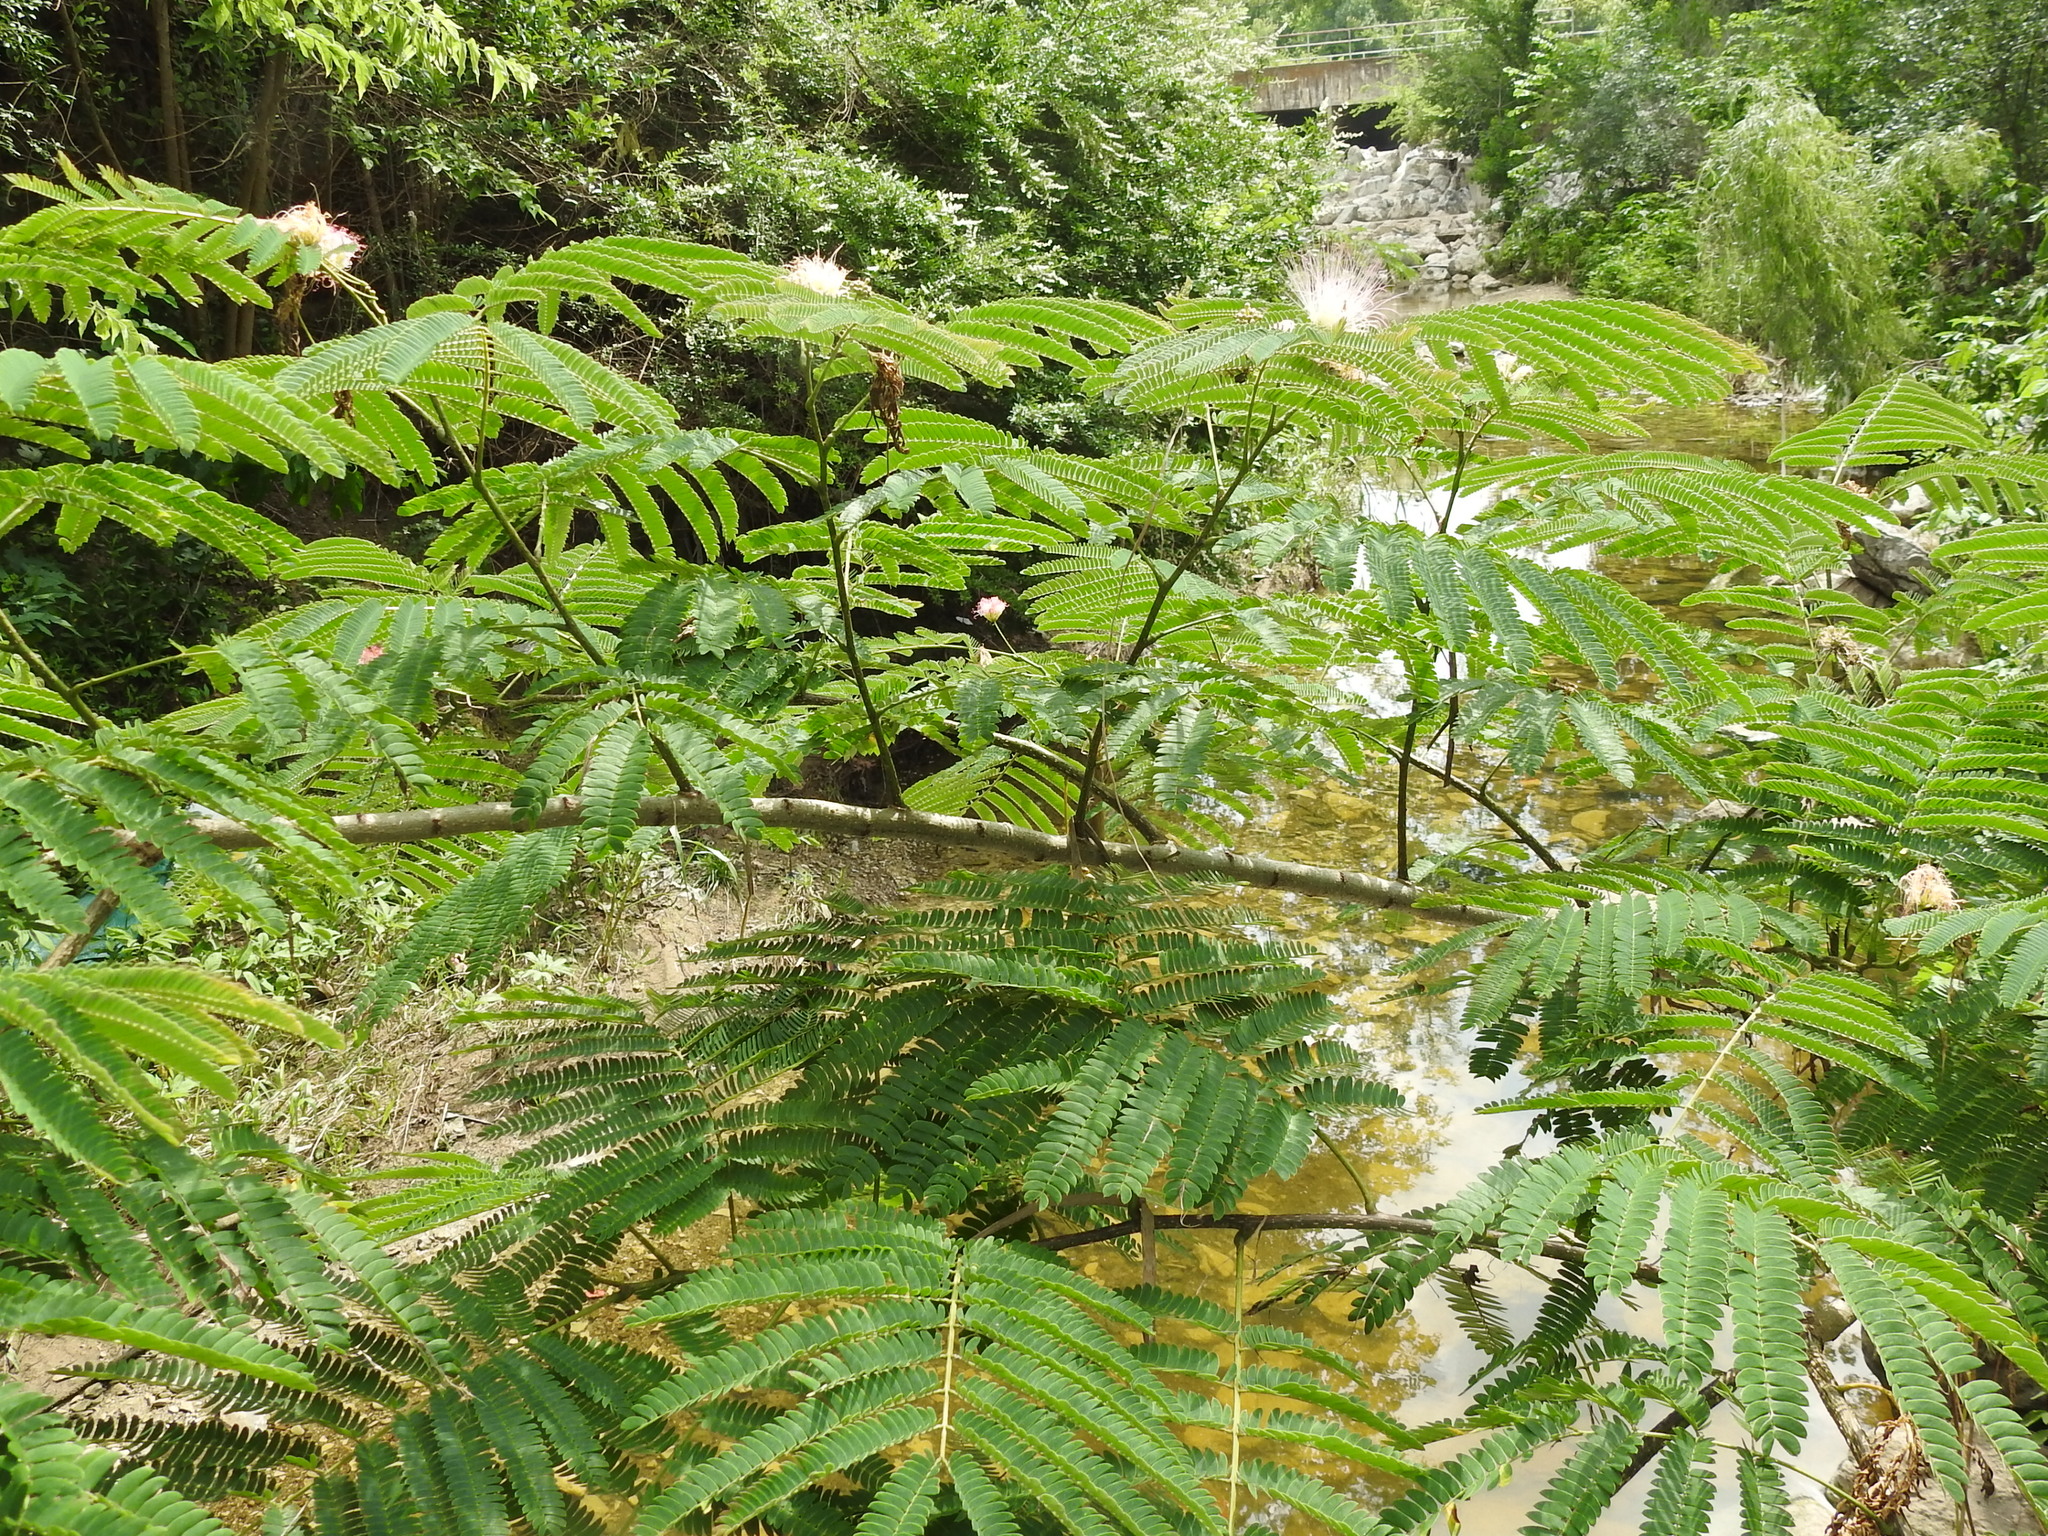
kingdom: Plantae
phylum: Tracheophyta
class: Magnoliopsida
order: Fabales
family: Fabaceae
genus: Albizia
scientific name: Albizia julibrissin
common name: Silktree
